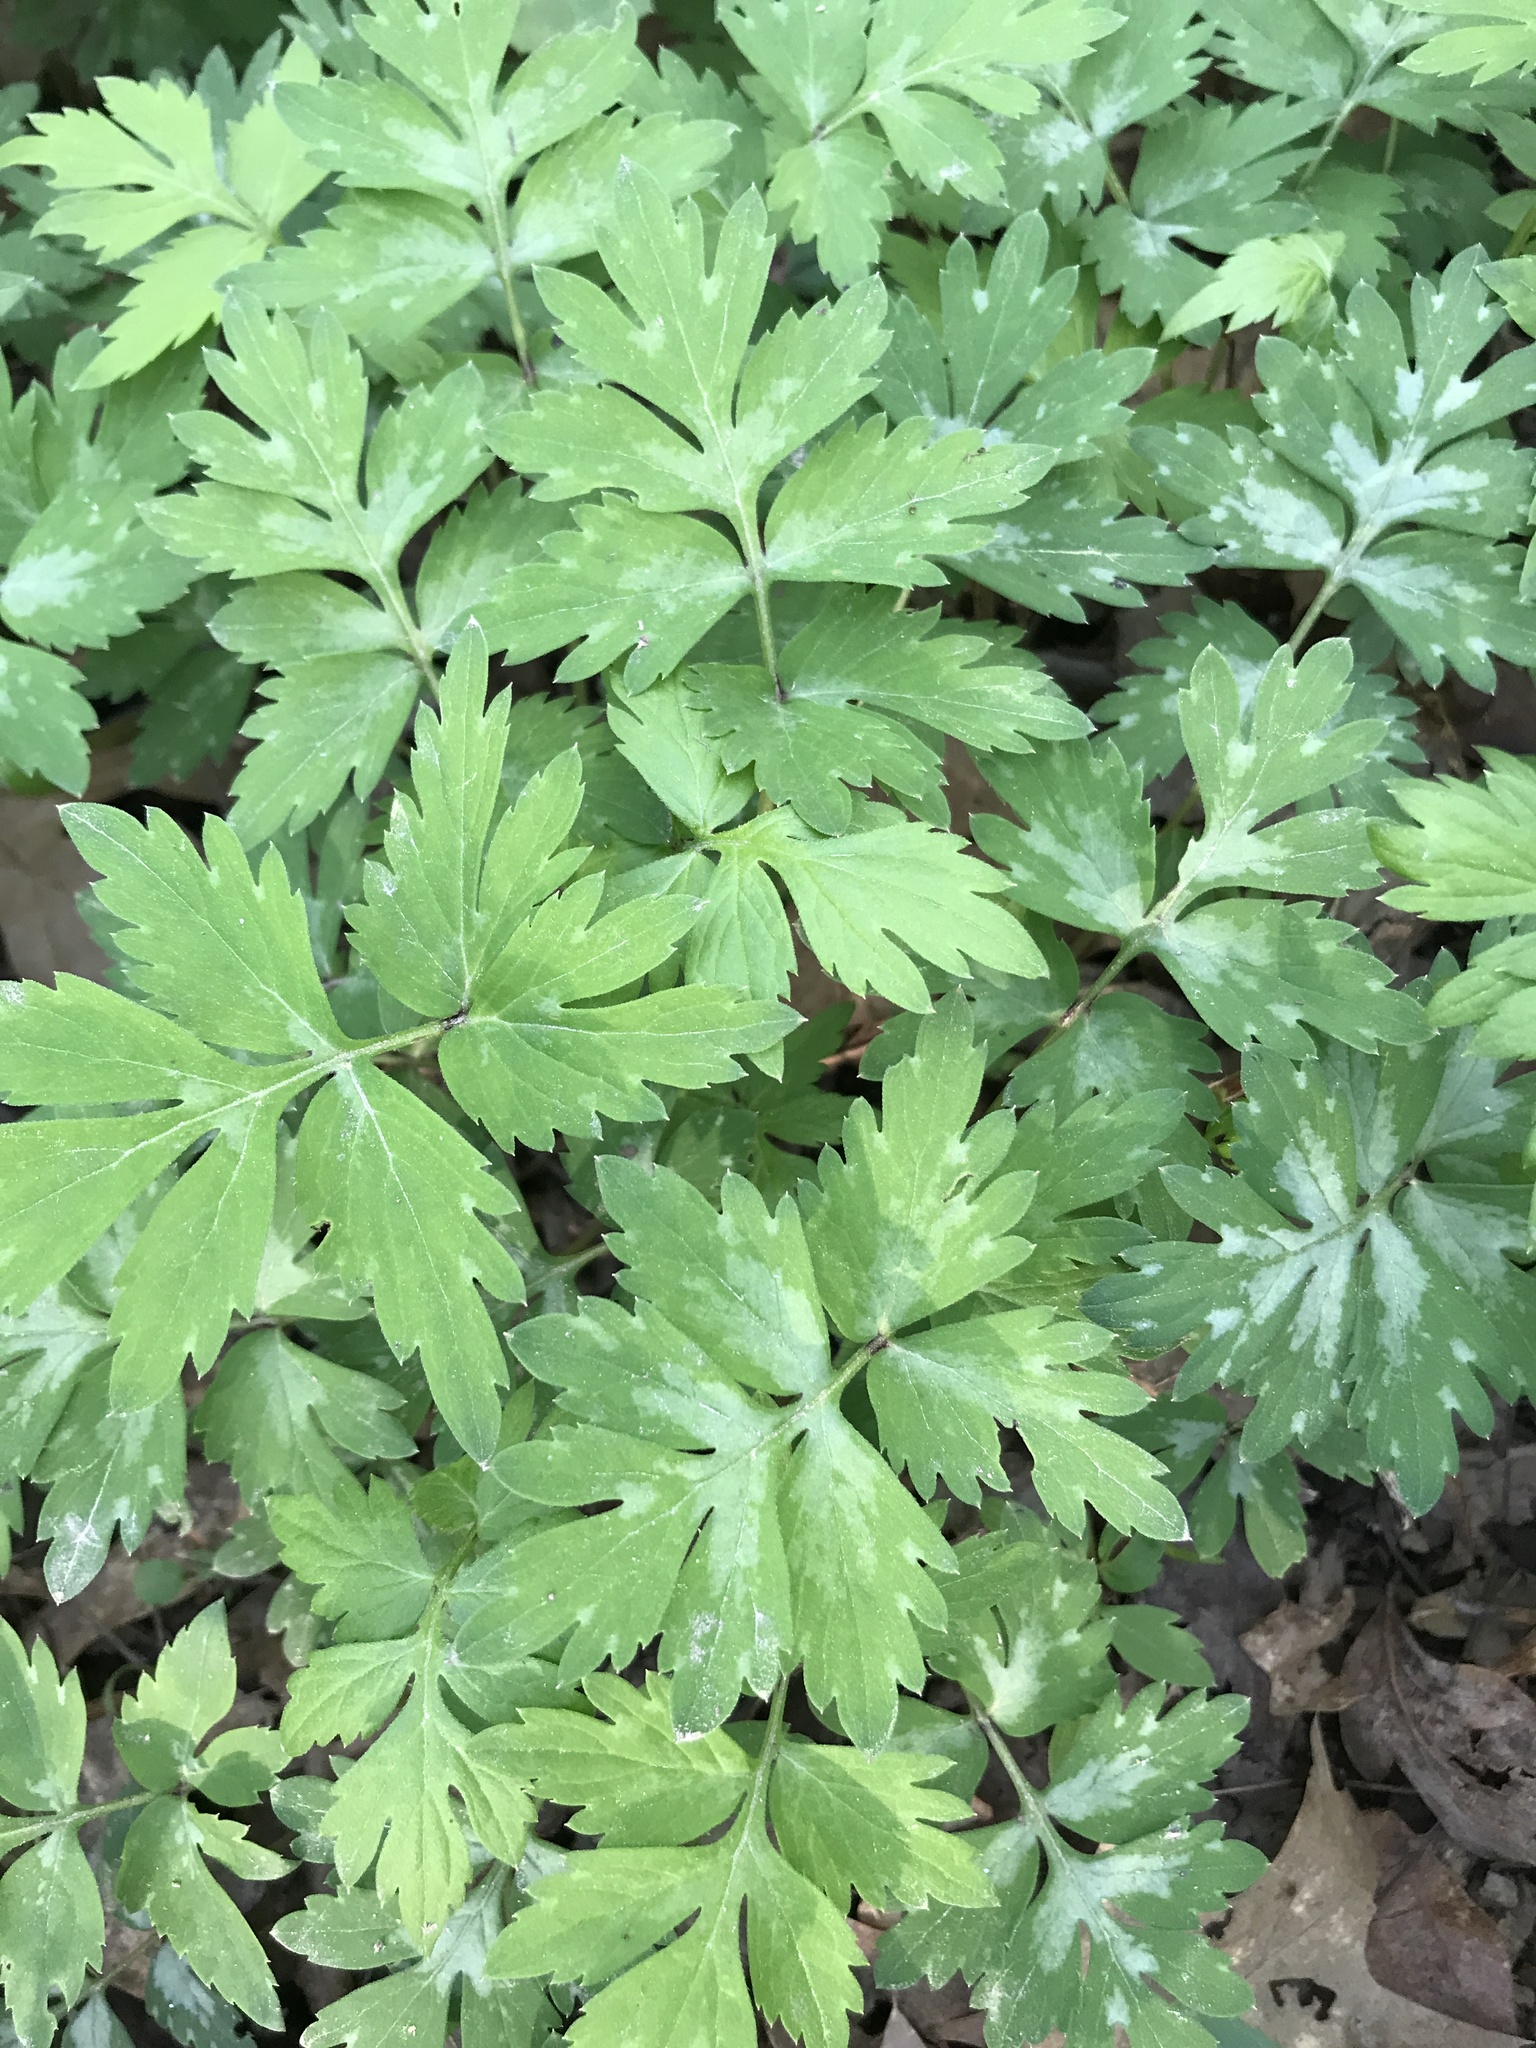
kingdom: Plantae
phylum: Tracheophyta
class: Magnoliopsida
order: Boraginales
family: Hydrophyllaceae
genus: Hydrophyllum
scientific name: Hydrophyllum virginianum
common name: Virginia waterleaf
